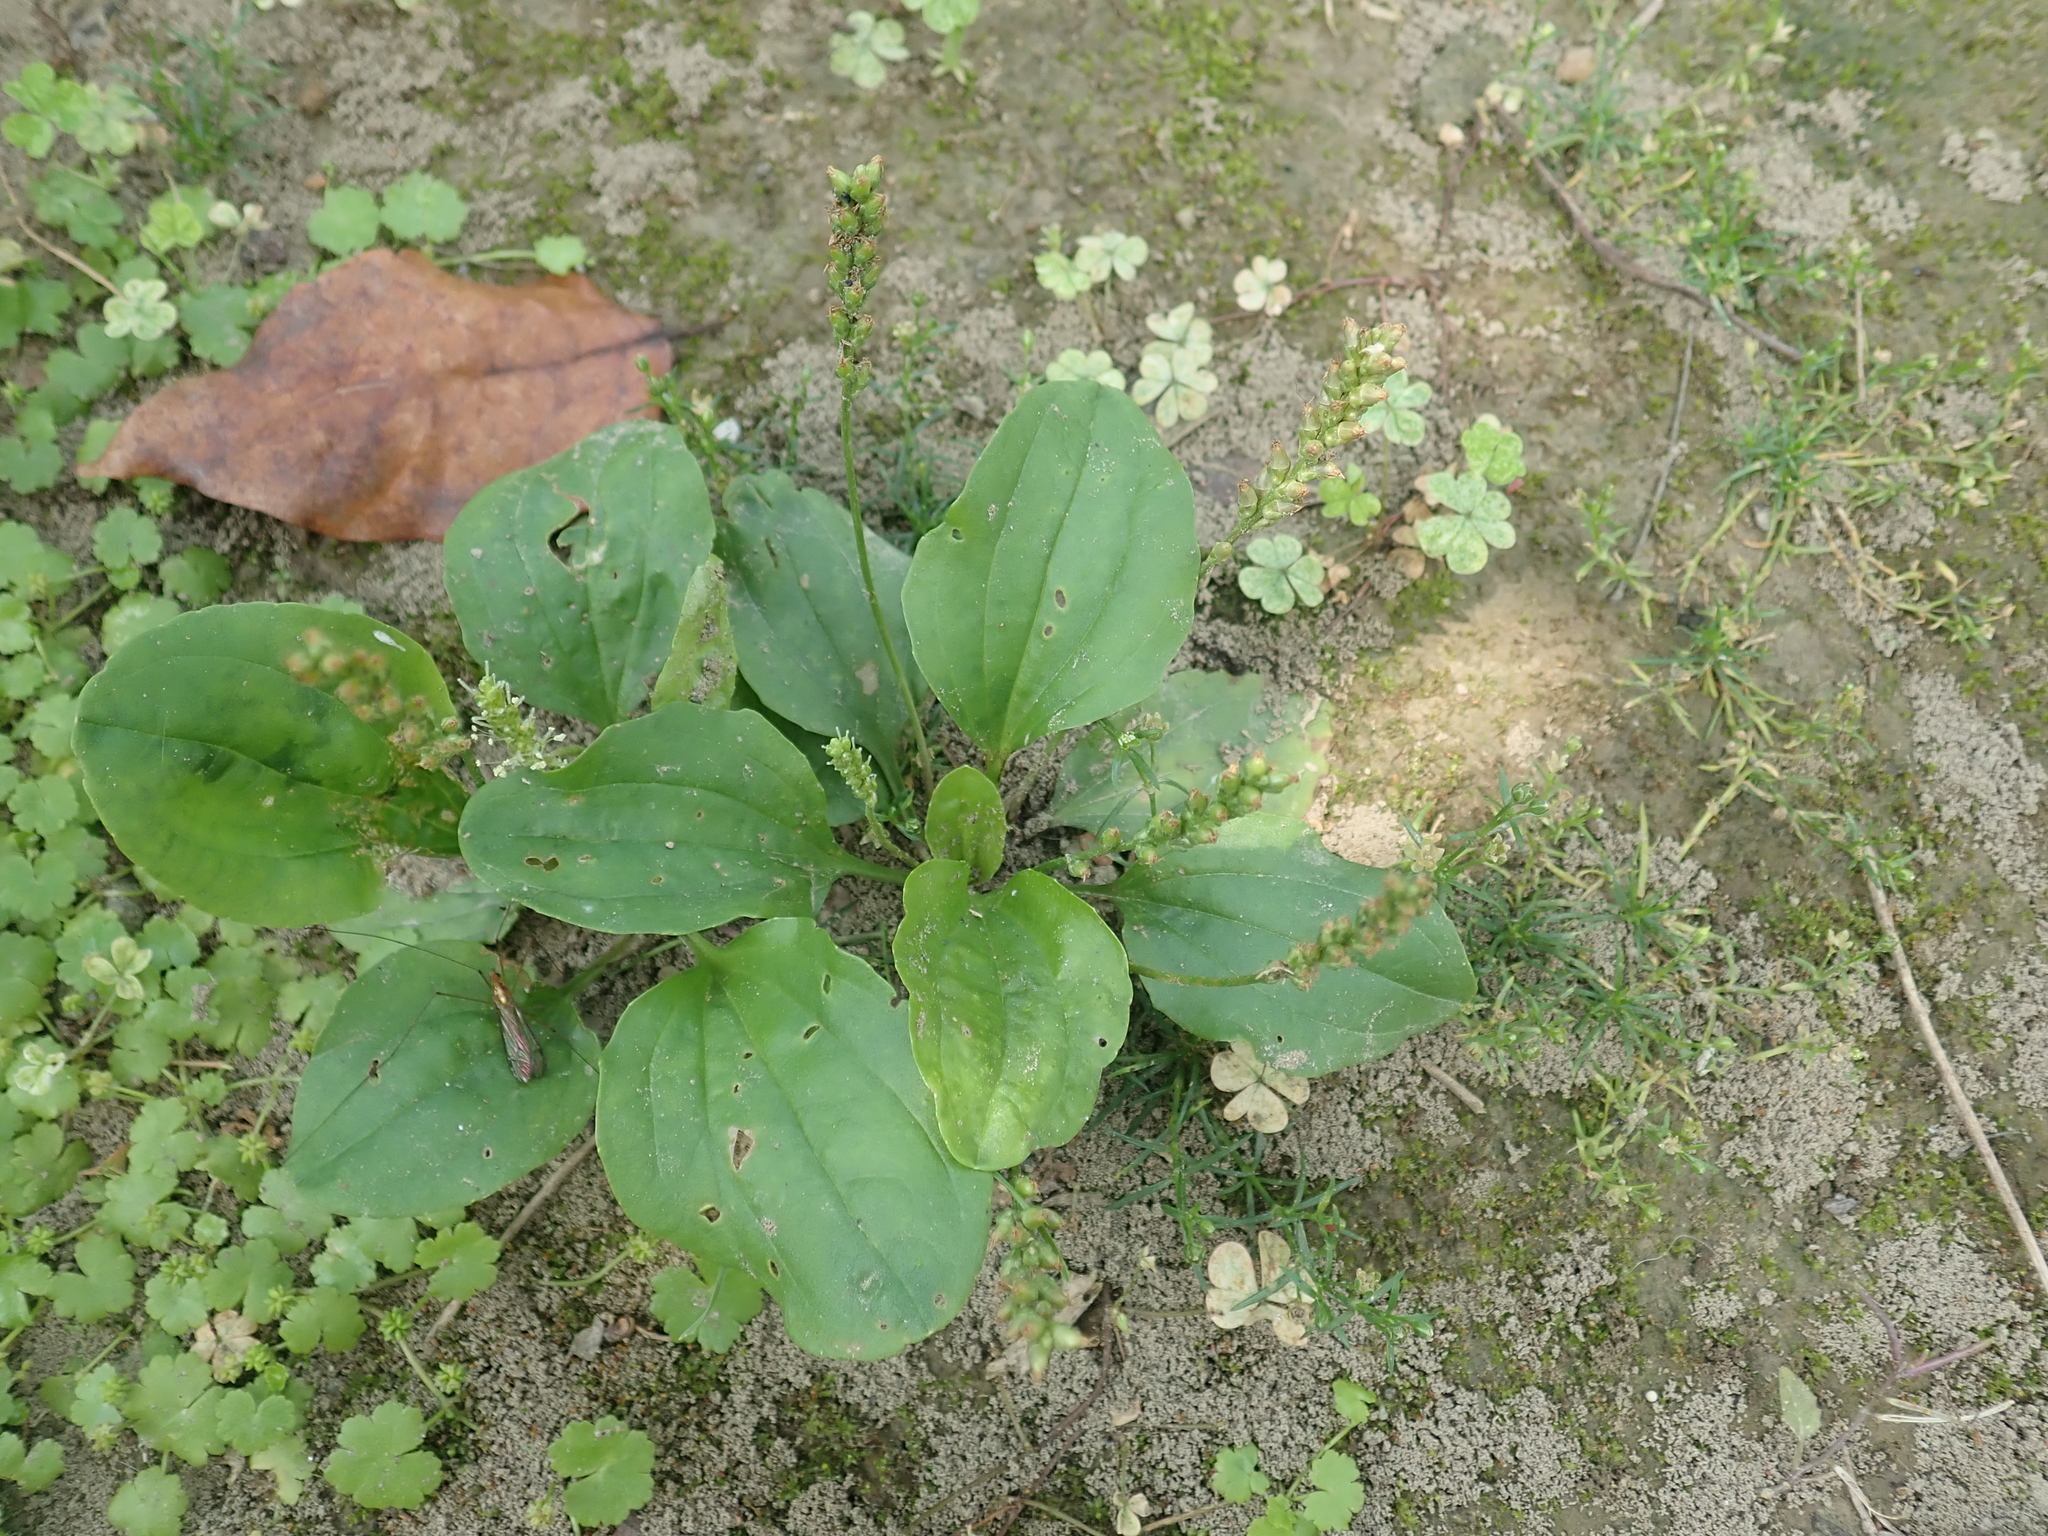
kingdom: Plantae
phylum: Tracheophyta
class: Magnoliopsida
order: Lamiales
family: Plantaginaceae
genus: Plantago
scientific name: Plantago asiatica
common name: Psyllium
